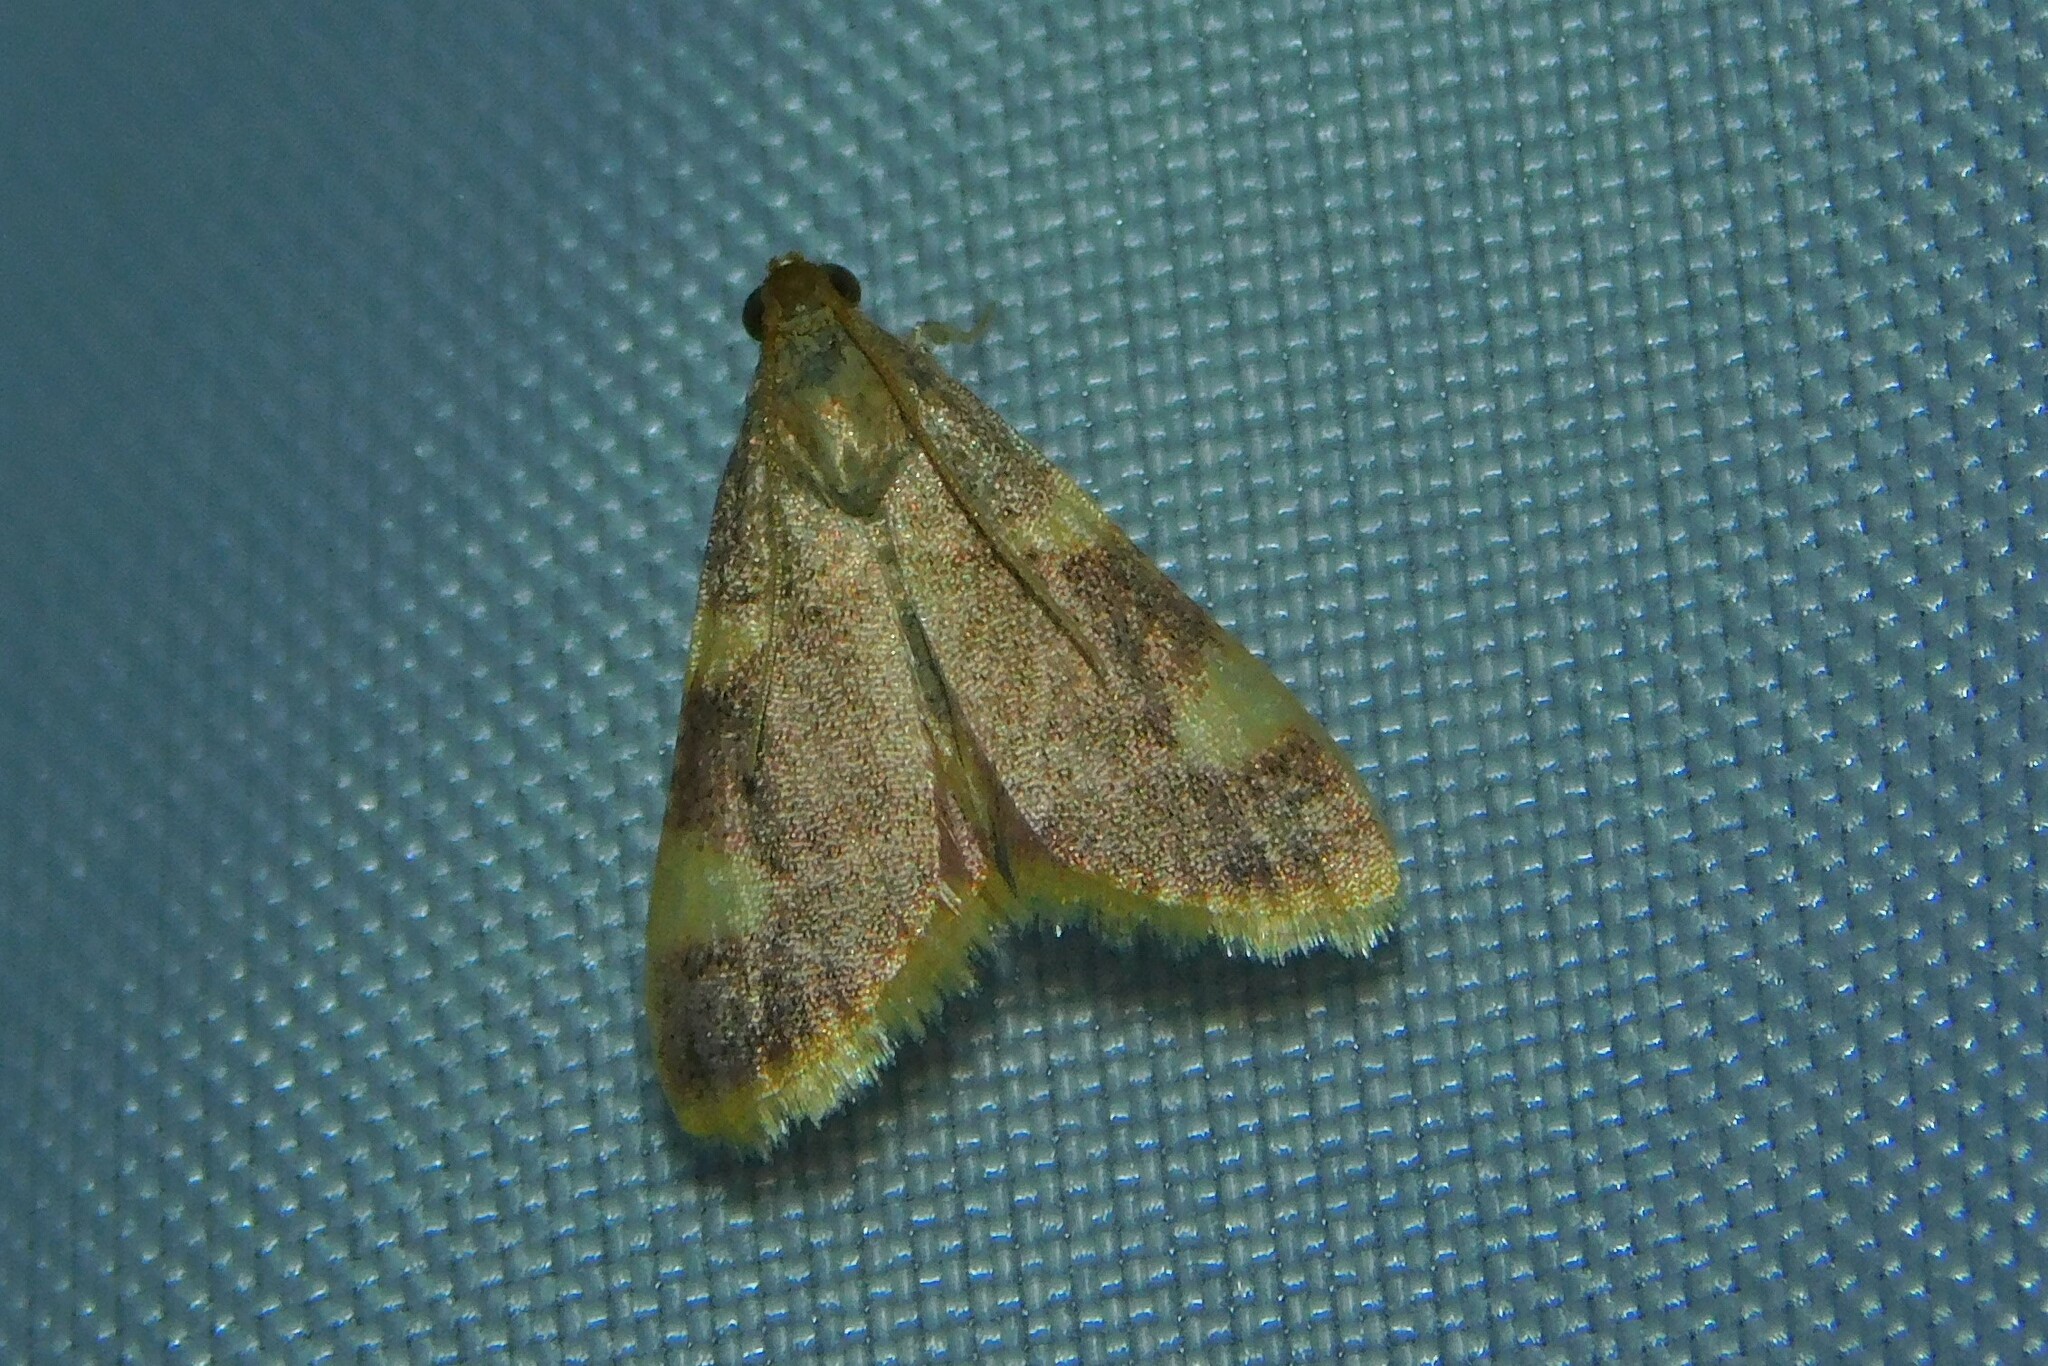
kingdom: Animalia
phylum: Arthropoda
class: Insecta
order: Lepidoptera
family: Pyralidae
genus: Hypsopygia
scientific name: Hypsopygia costalis
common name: Gold triangle
